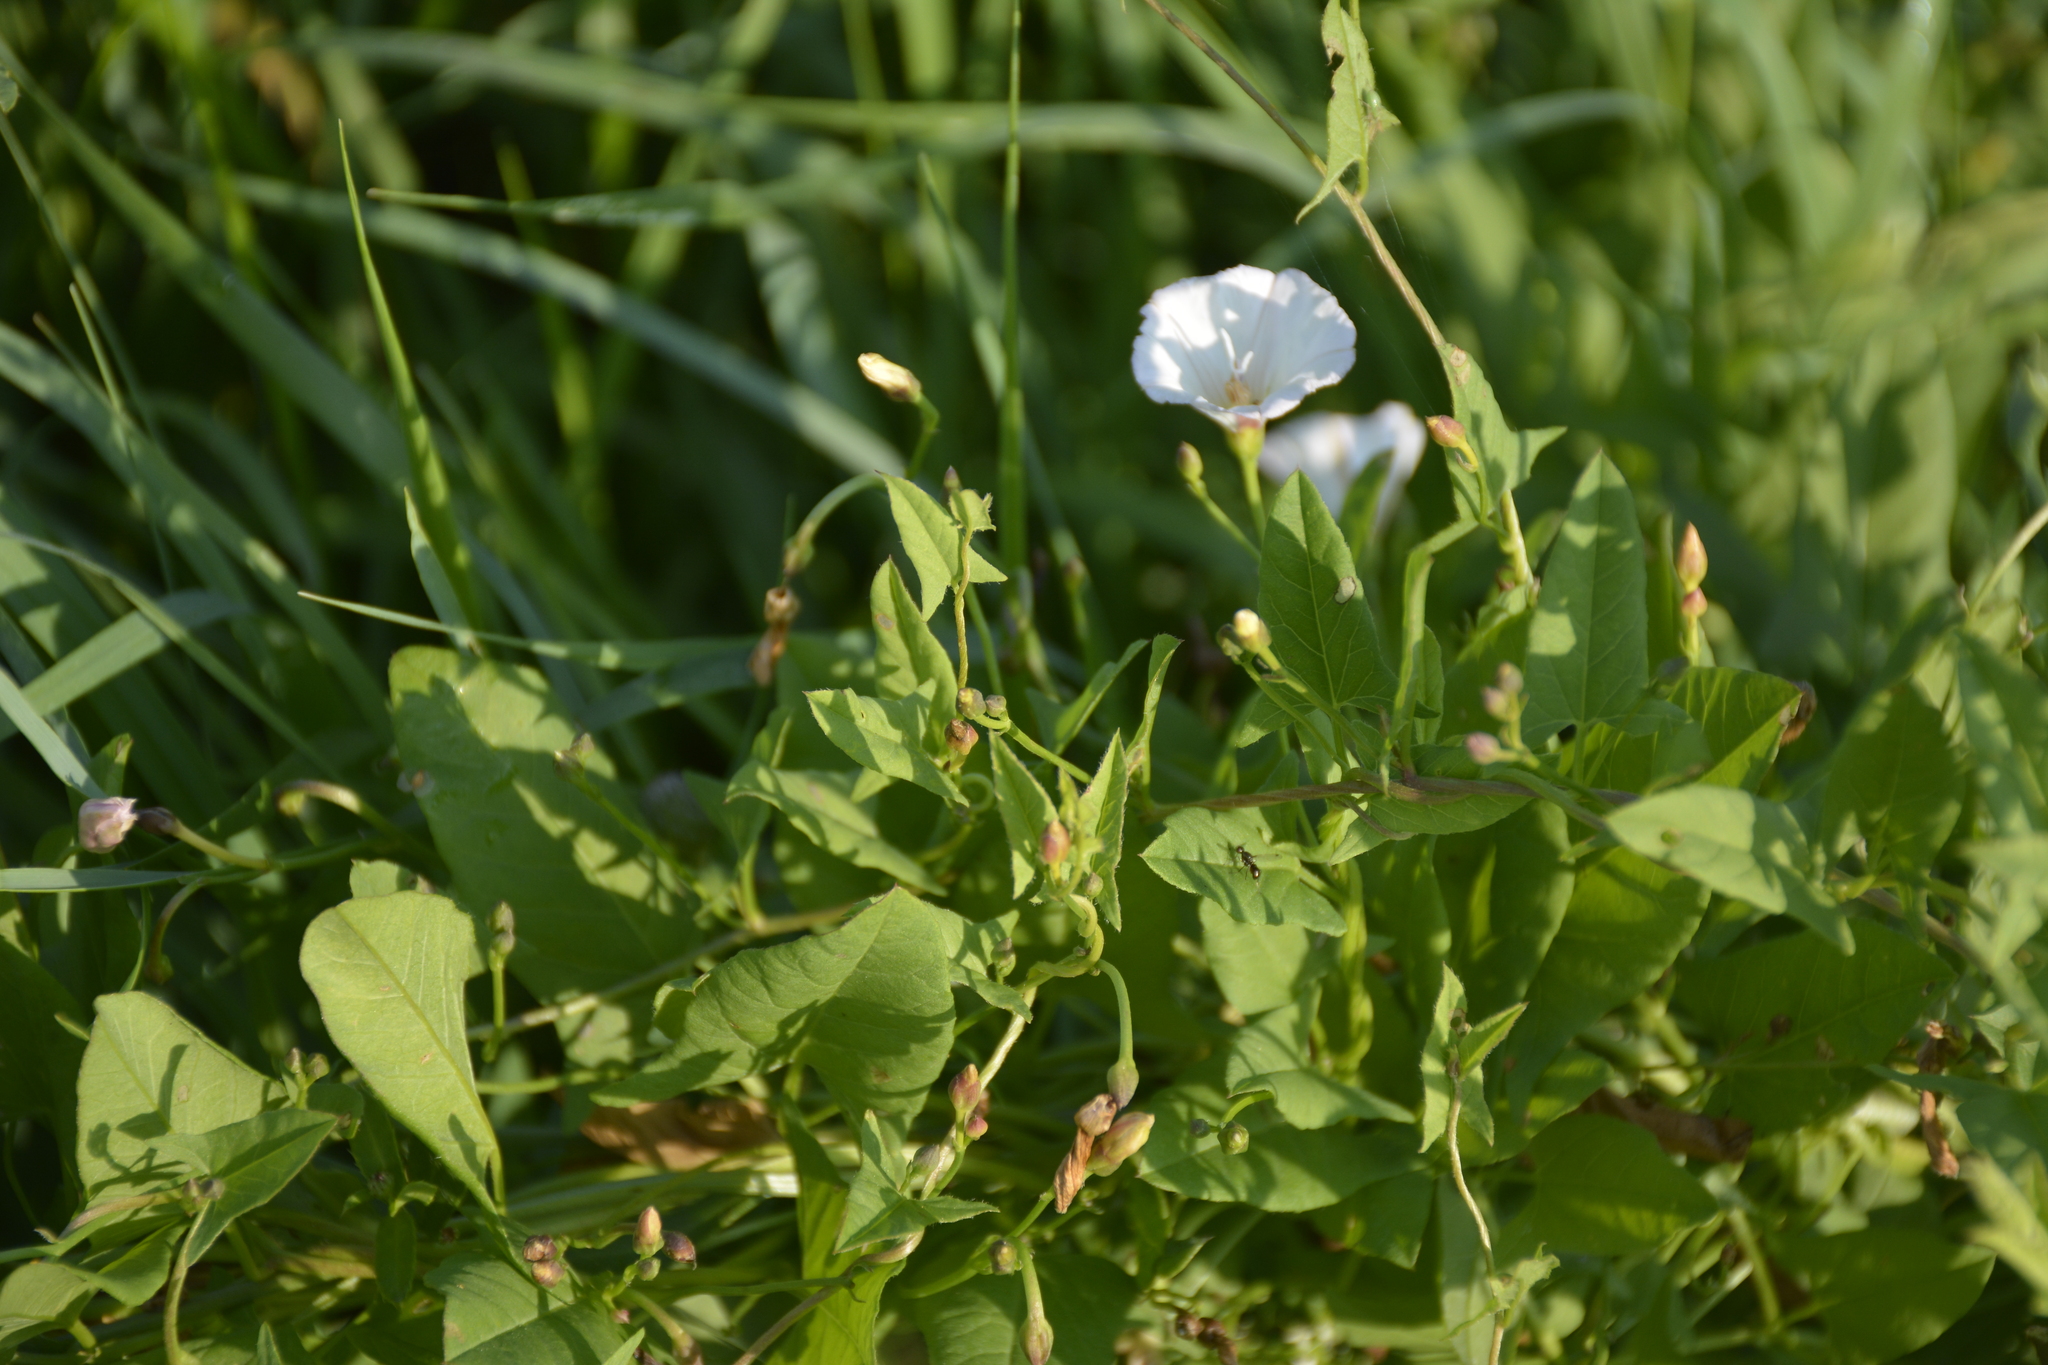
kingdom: Plantae
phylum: Tracheophyta
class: Magnoliopsida
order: Solanales
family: Convolvulaceae
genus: Convolvulus
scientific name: Convolvulus arvensis
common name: Field bindweed
